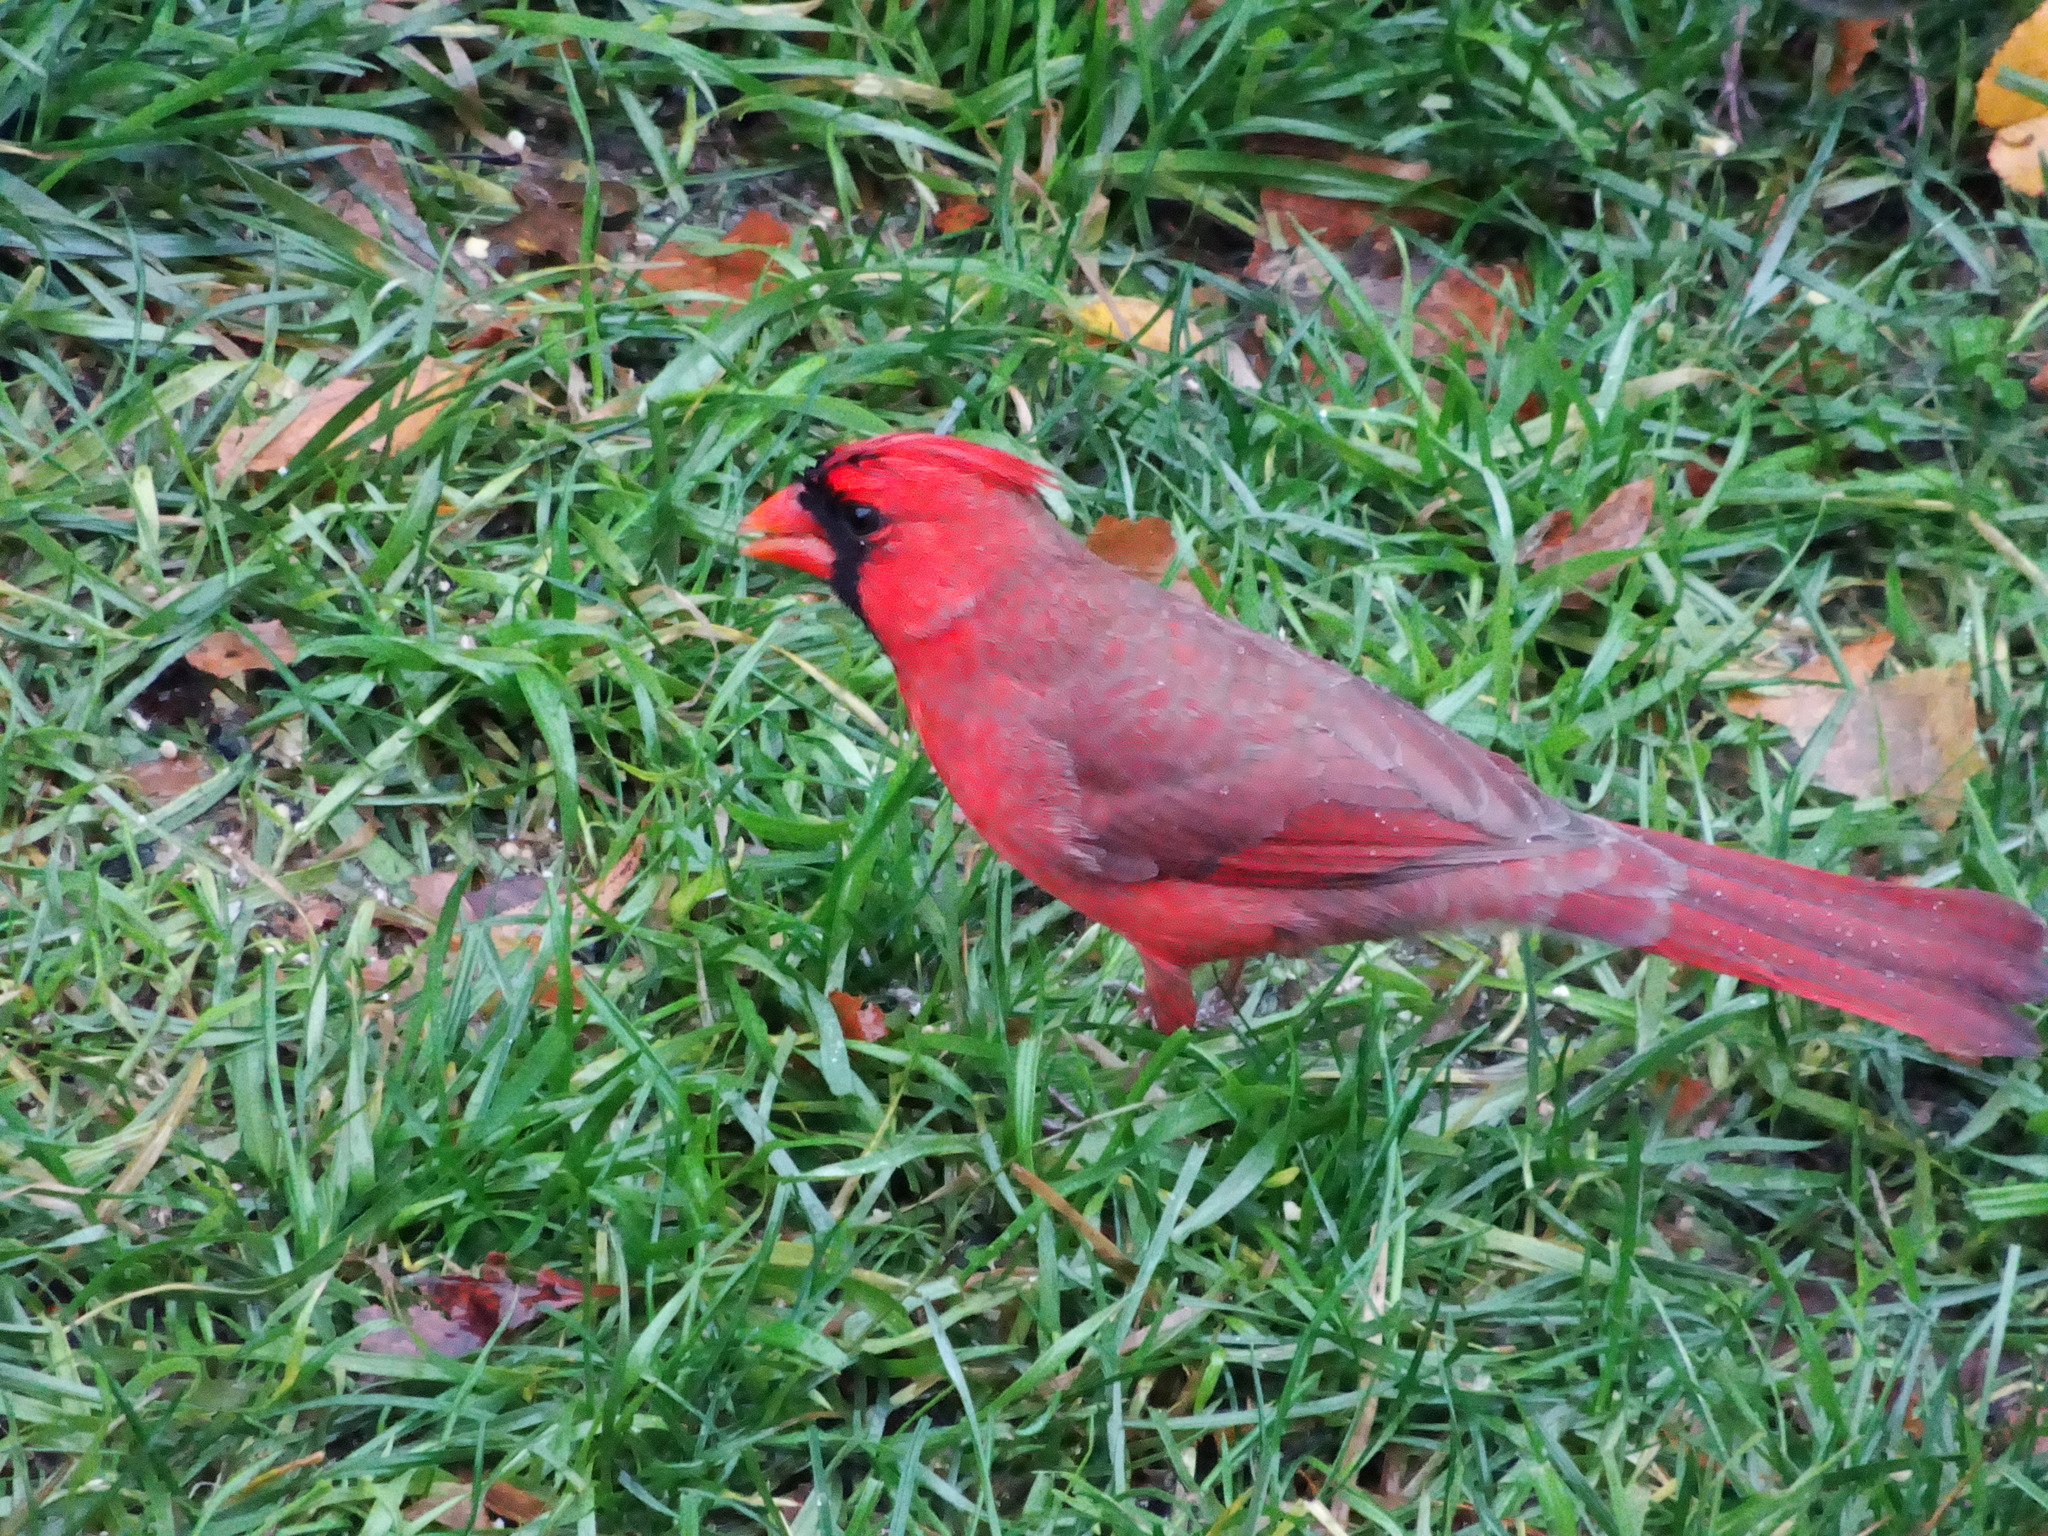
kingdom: Animalia
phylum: Chordata
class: Aves
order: Passeriformes
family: Cardinalidae
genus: Cardinalis
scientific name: Cardinalis cardinalis
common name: Northern cardinal
